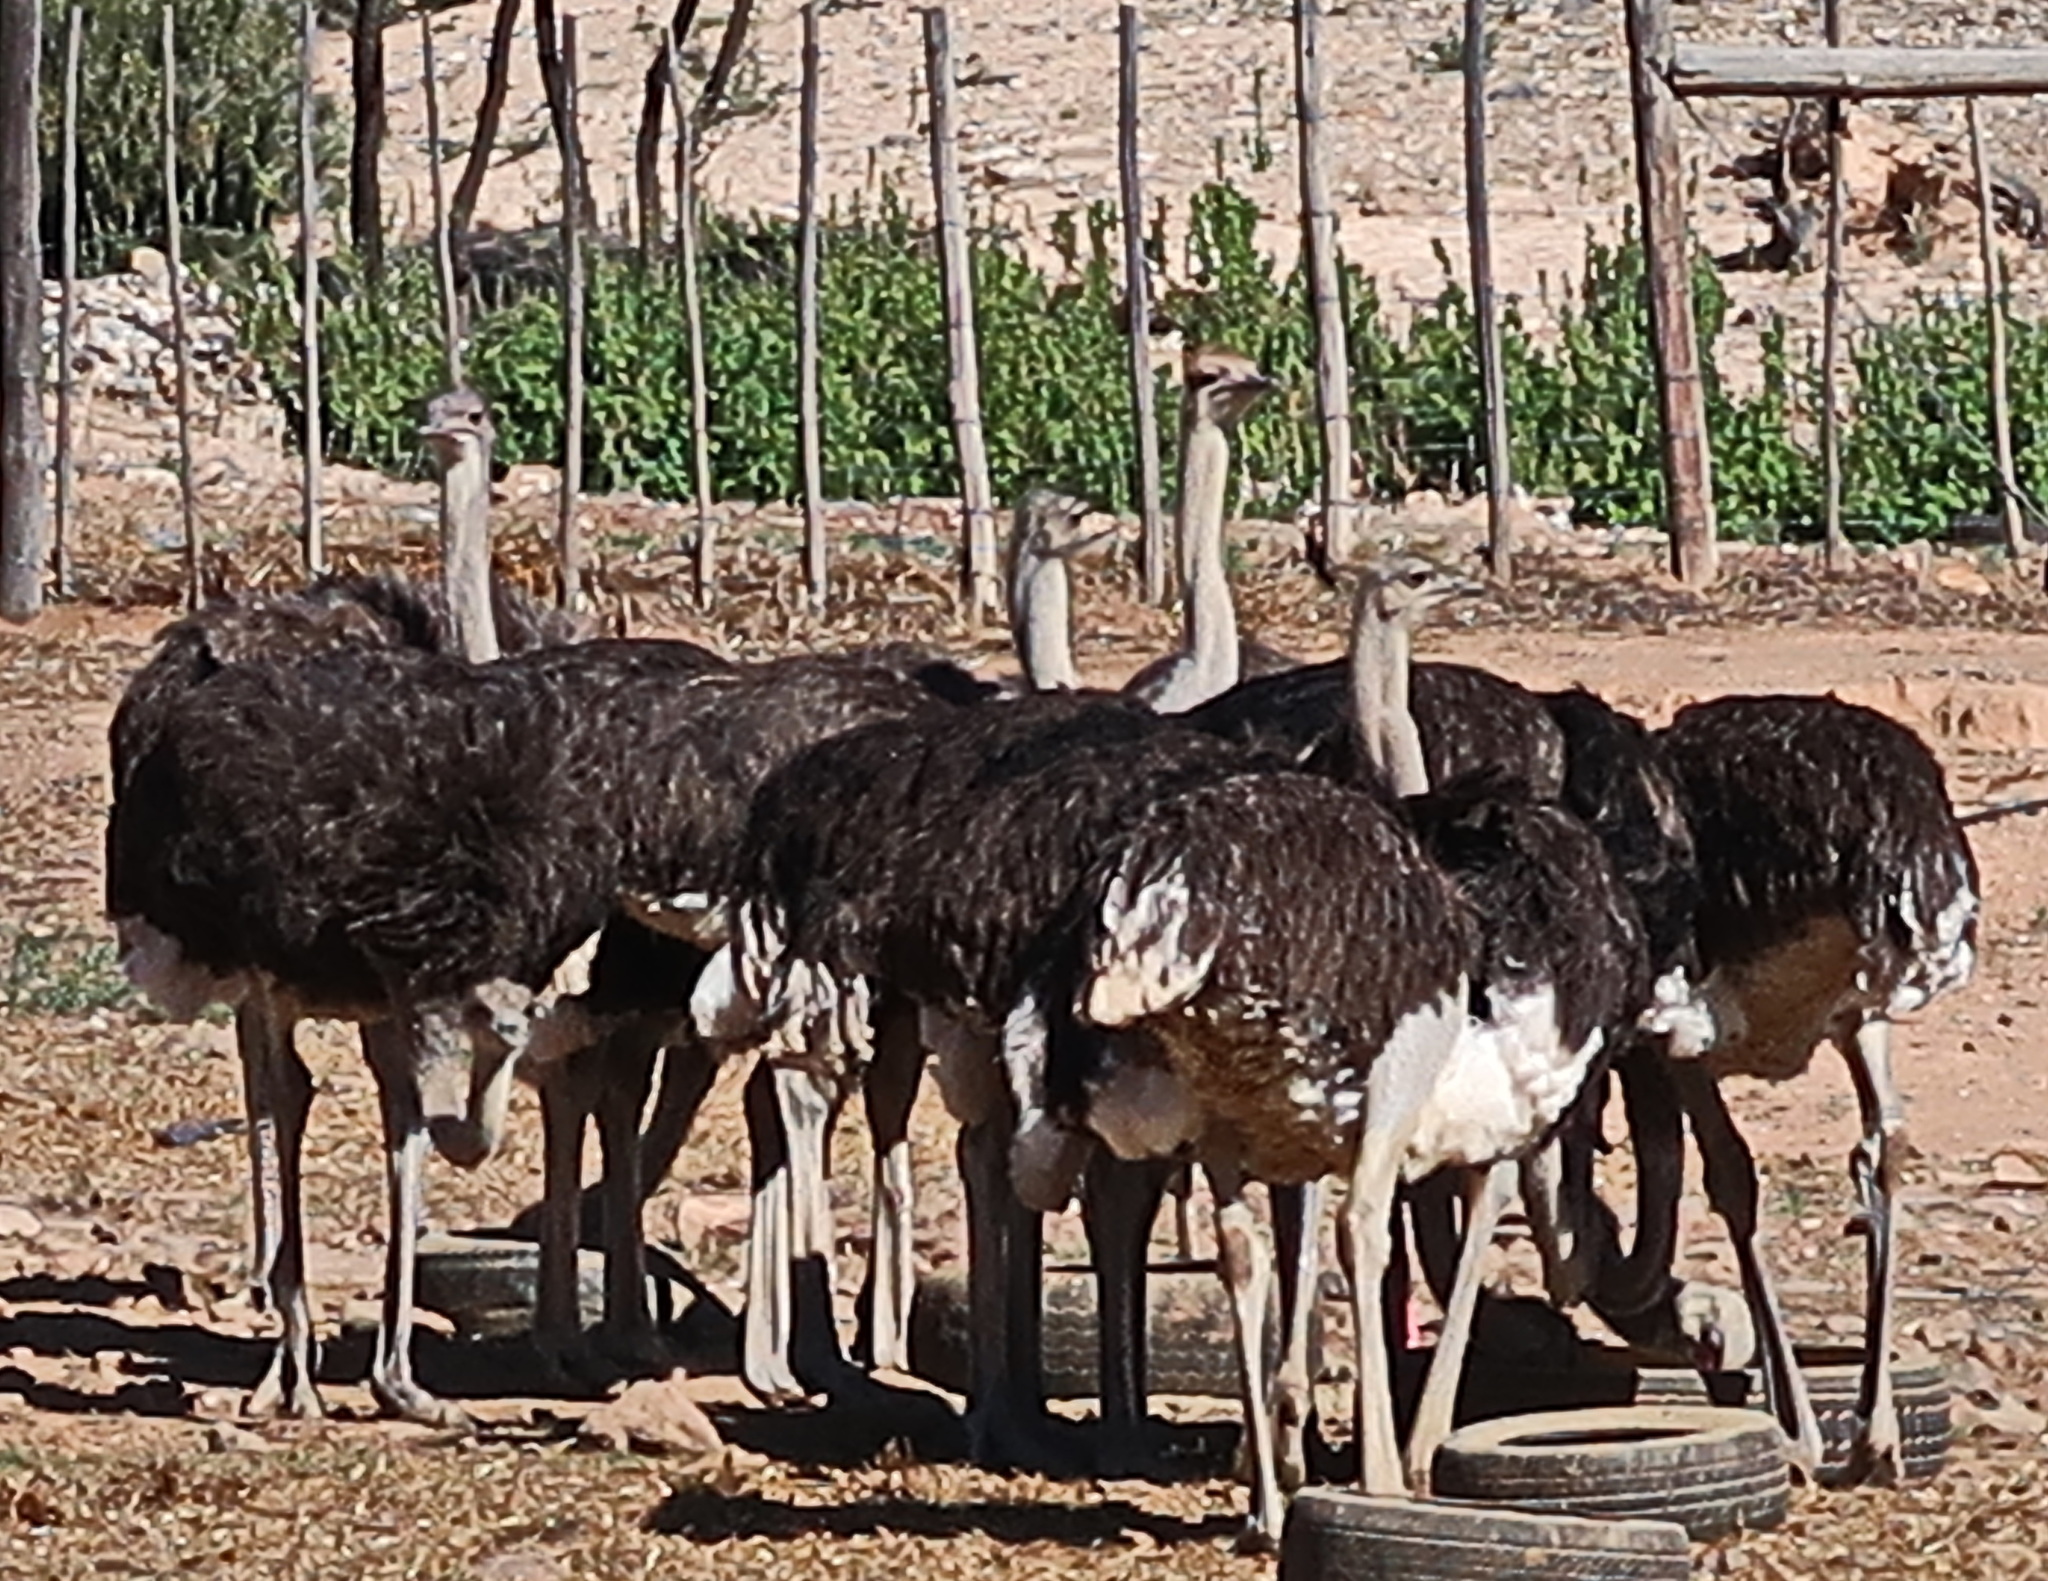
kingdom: Animalia
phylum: Chordata
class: Aves
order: Struthioniformes
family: Struthionidae
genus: Struthio
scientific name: Struthio camelus
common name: Common ostrich
